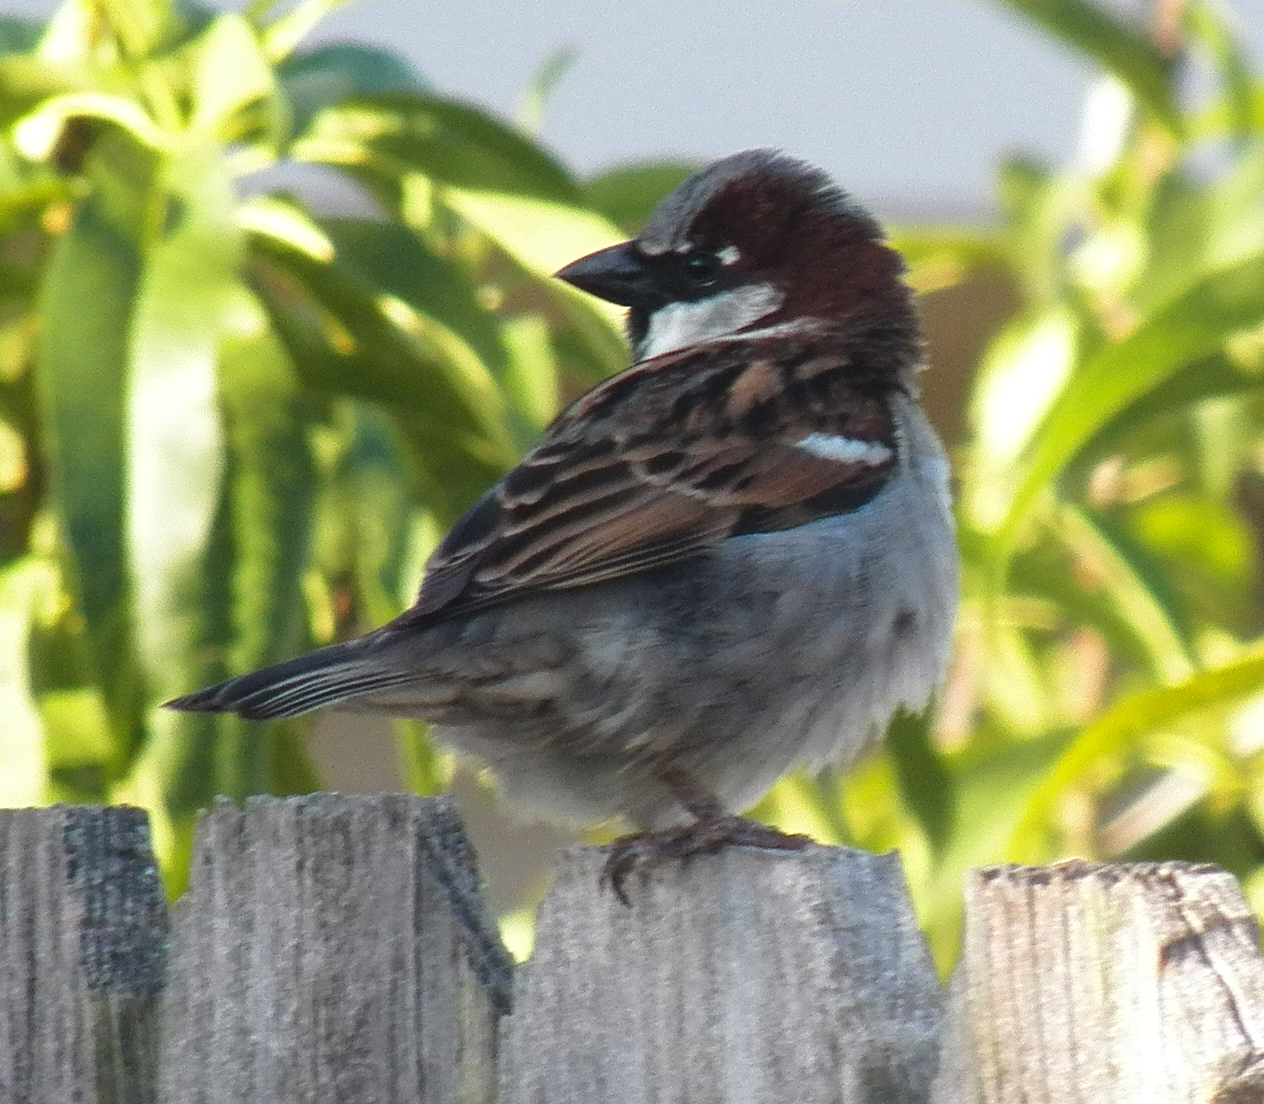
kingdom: Animalia
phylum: Chordata
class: Aves
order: Passeriformes
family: Passeridae
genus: Passer
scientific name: Passer domesticus
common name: House sparrow
